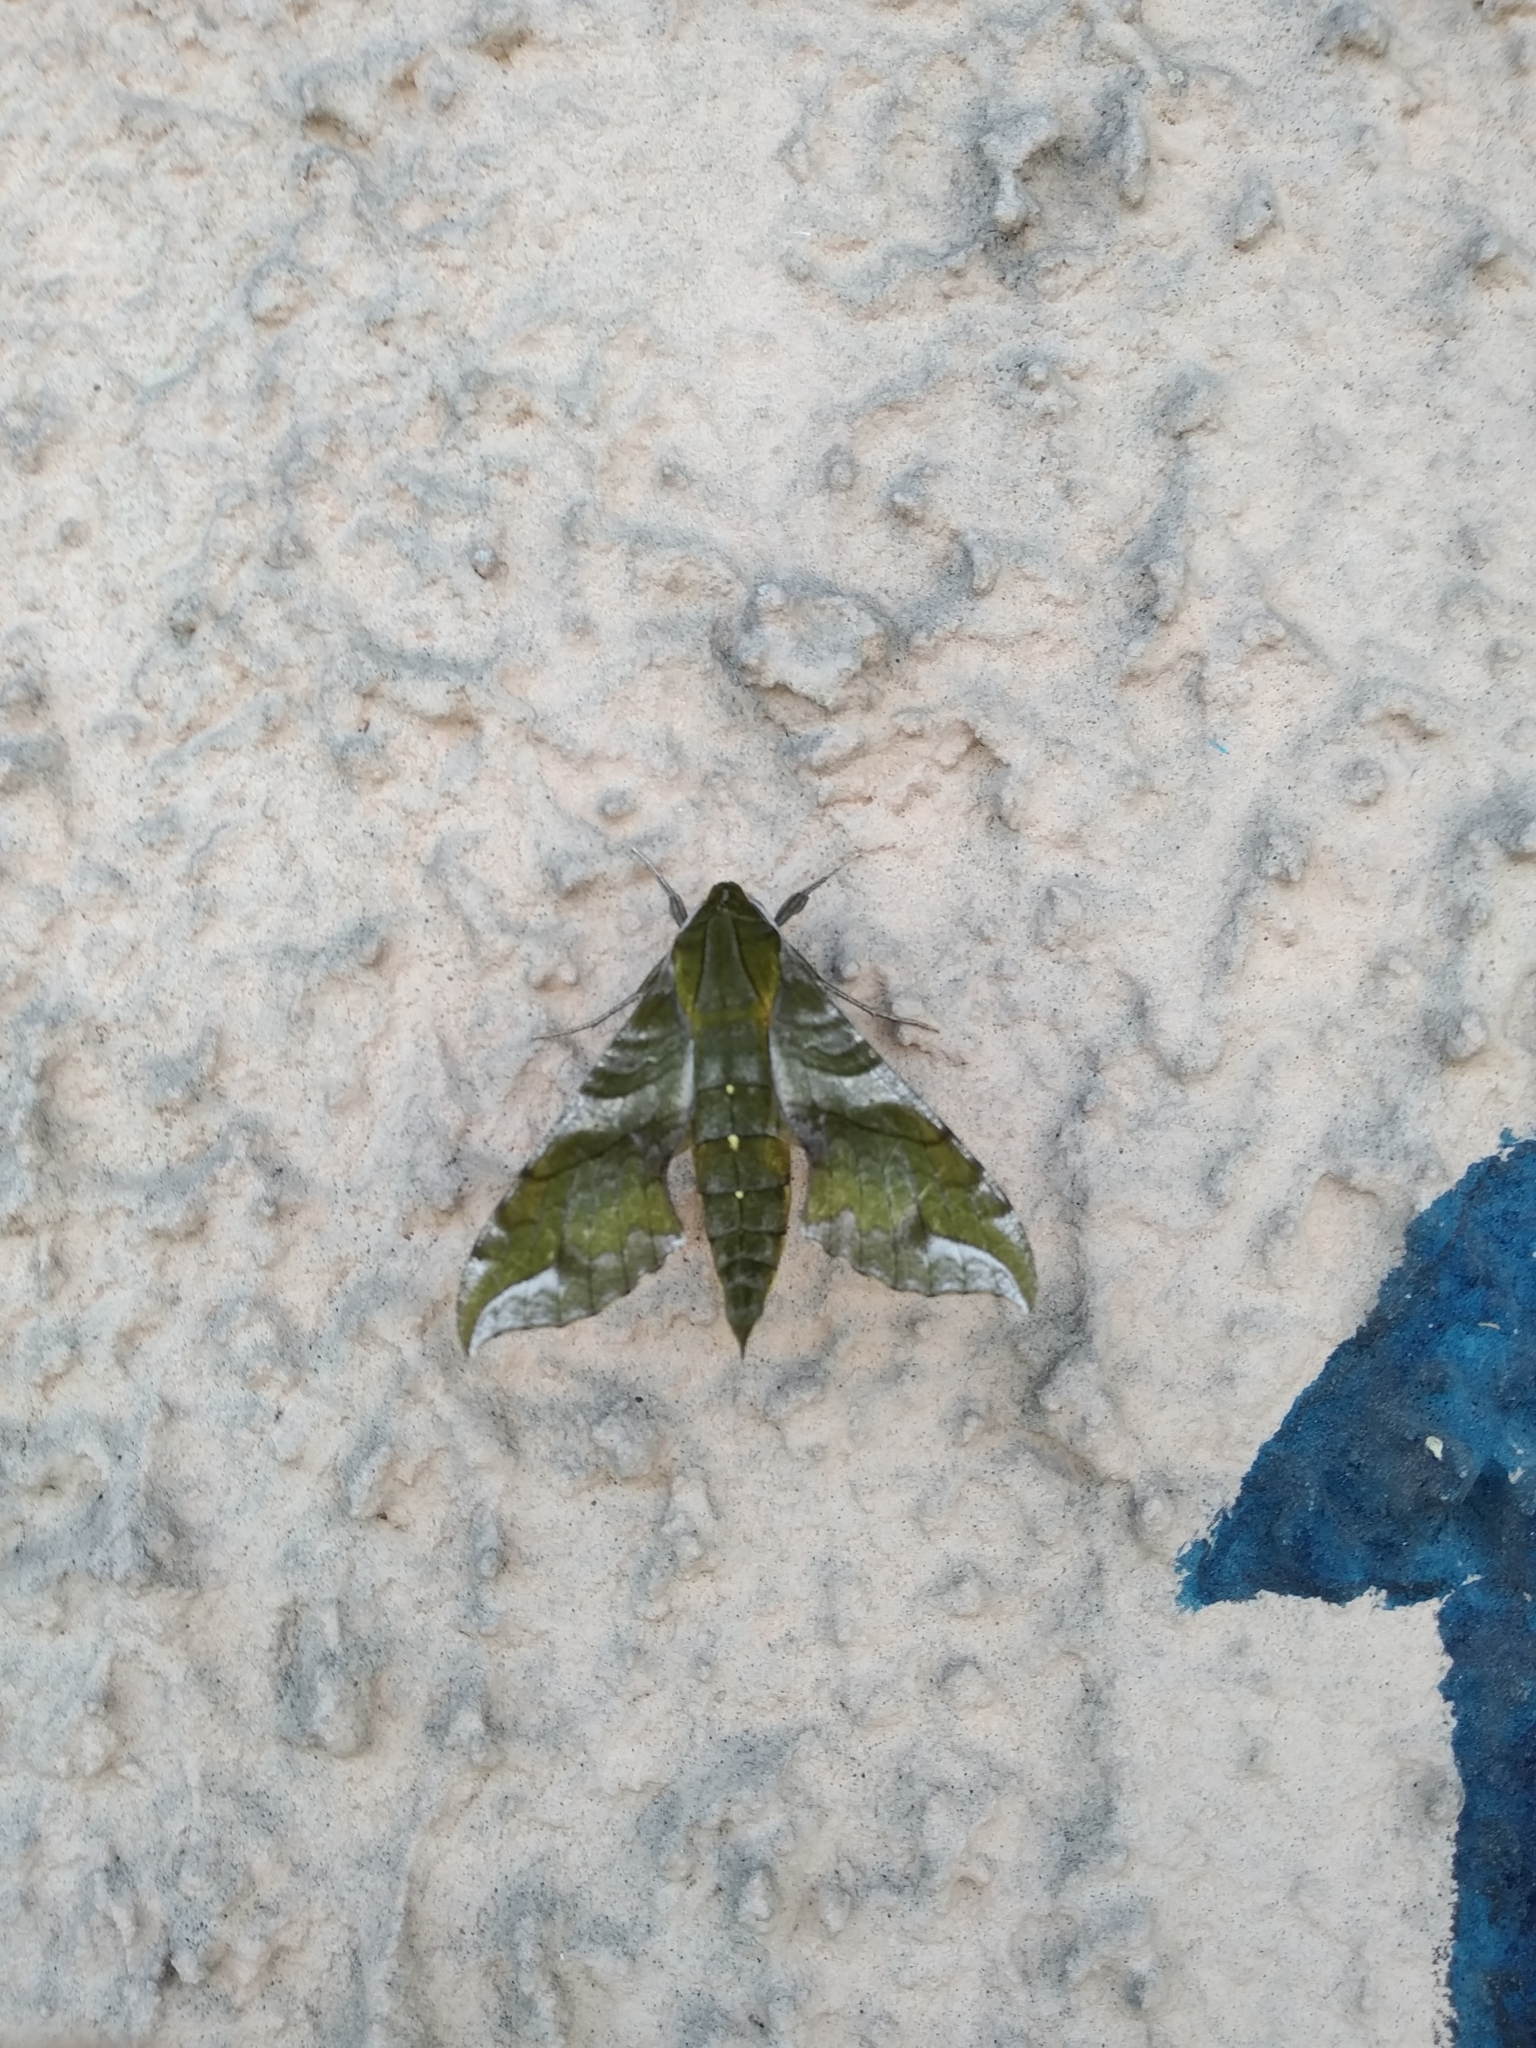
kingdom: Animalia
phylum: Arthropoda
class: Insecta
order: Lepidoptera
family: Sphingidae
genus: Xylophanes
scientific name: Xylophanes pluto
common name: Pluto sphinx
